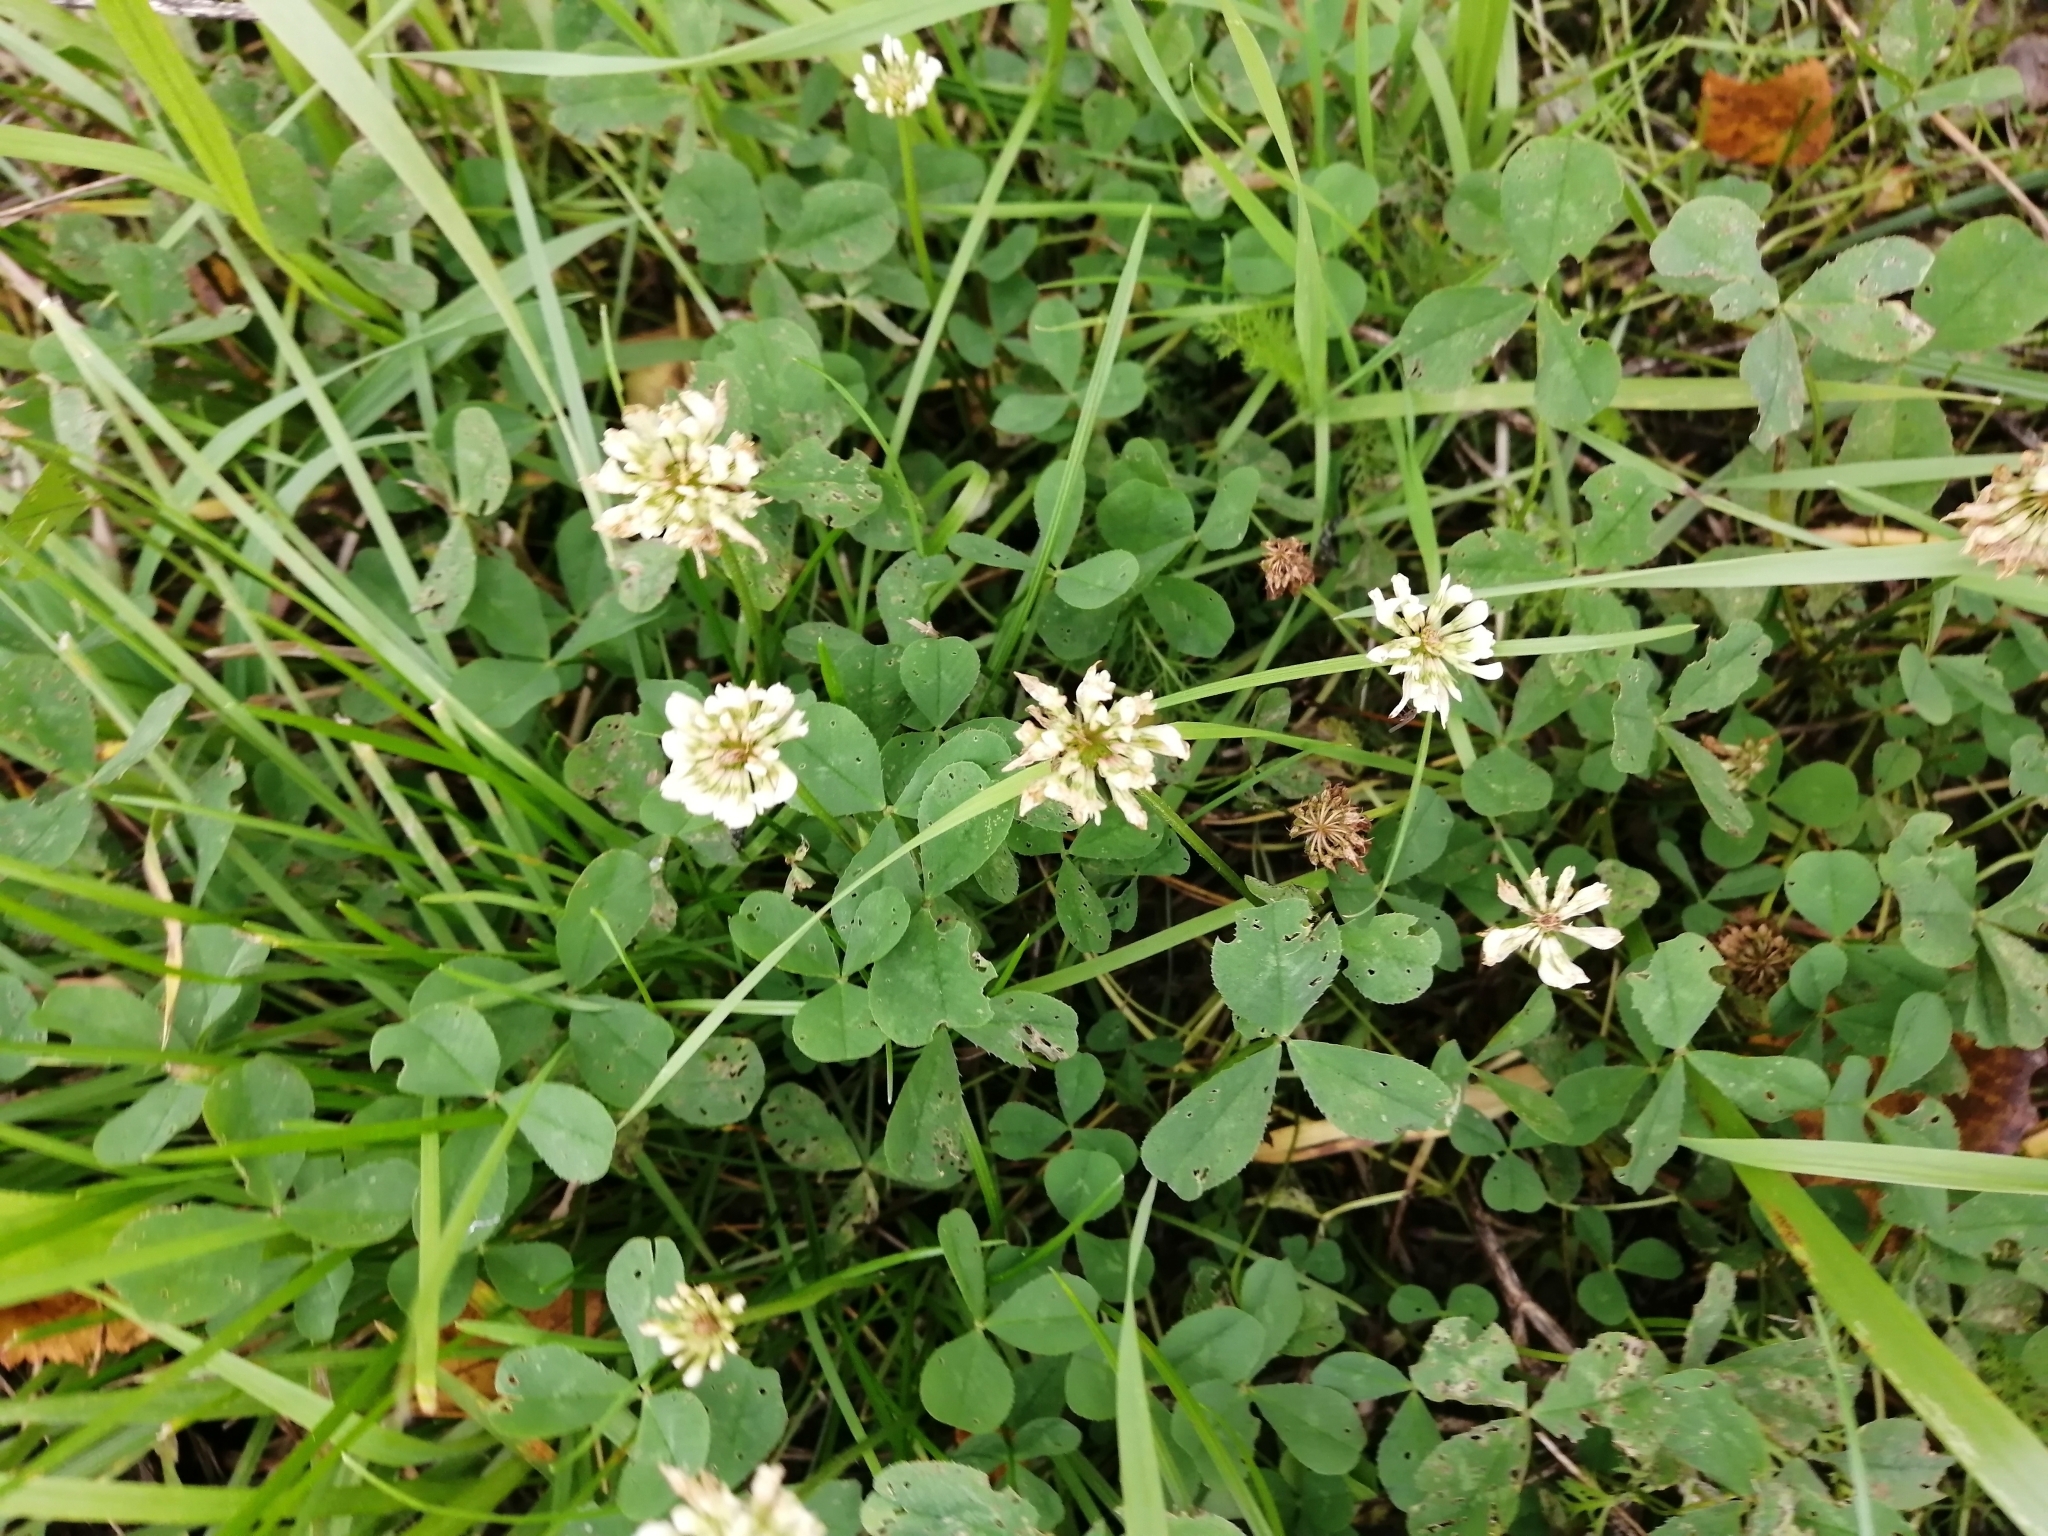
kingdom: Plantae
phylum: Tracheophyta
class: Magnoliopsida
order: Fabales
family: Fabaceae
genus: Trifolium
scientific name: Trifolium repens
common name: White clover
